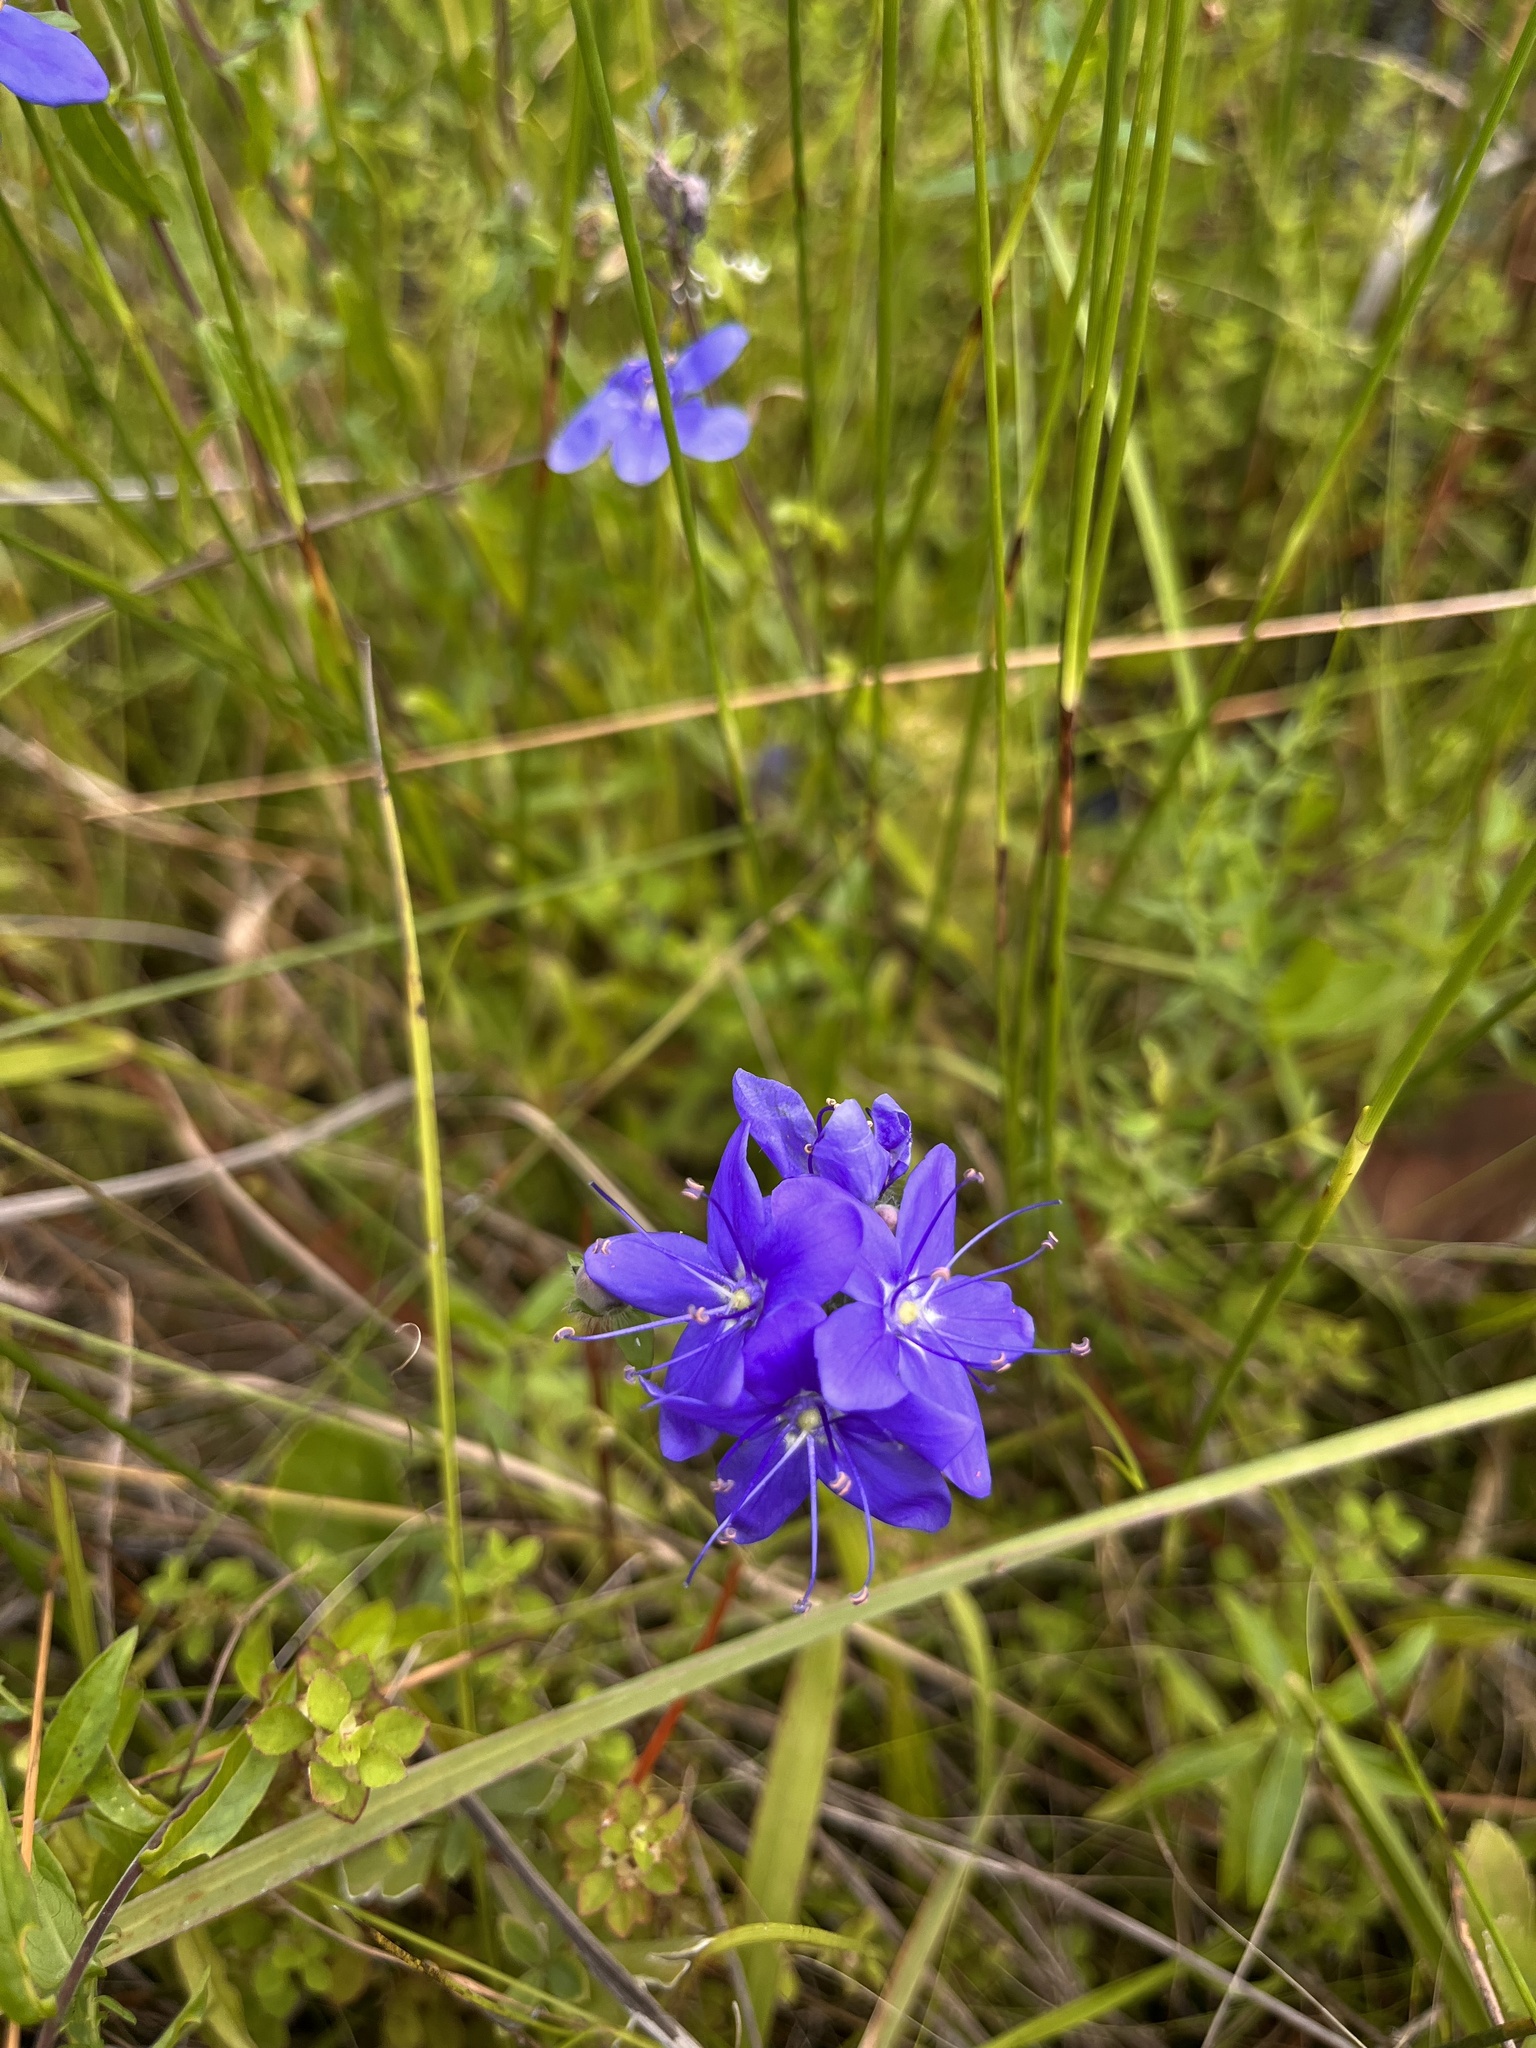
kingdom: Plantae
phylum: Tracheophyta
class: Magnoliopsida
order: Solanales
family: Hydroleaceae
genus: Hydrolea
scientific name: Hydrolea corymbosa
